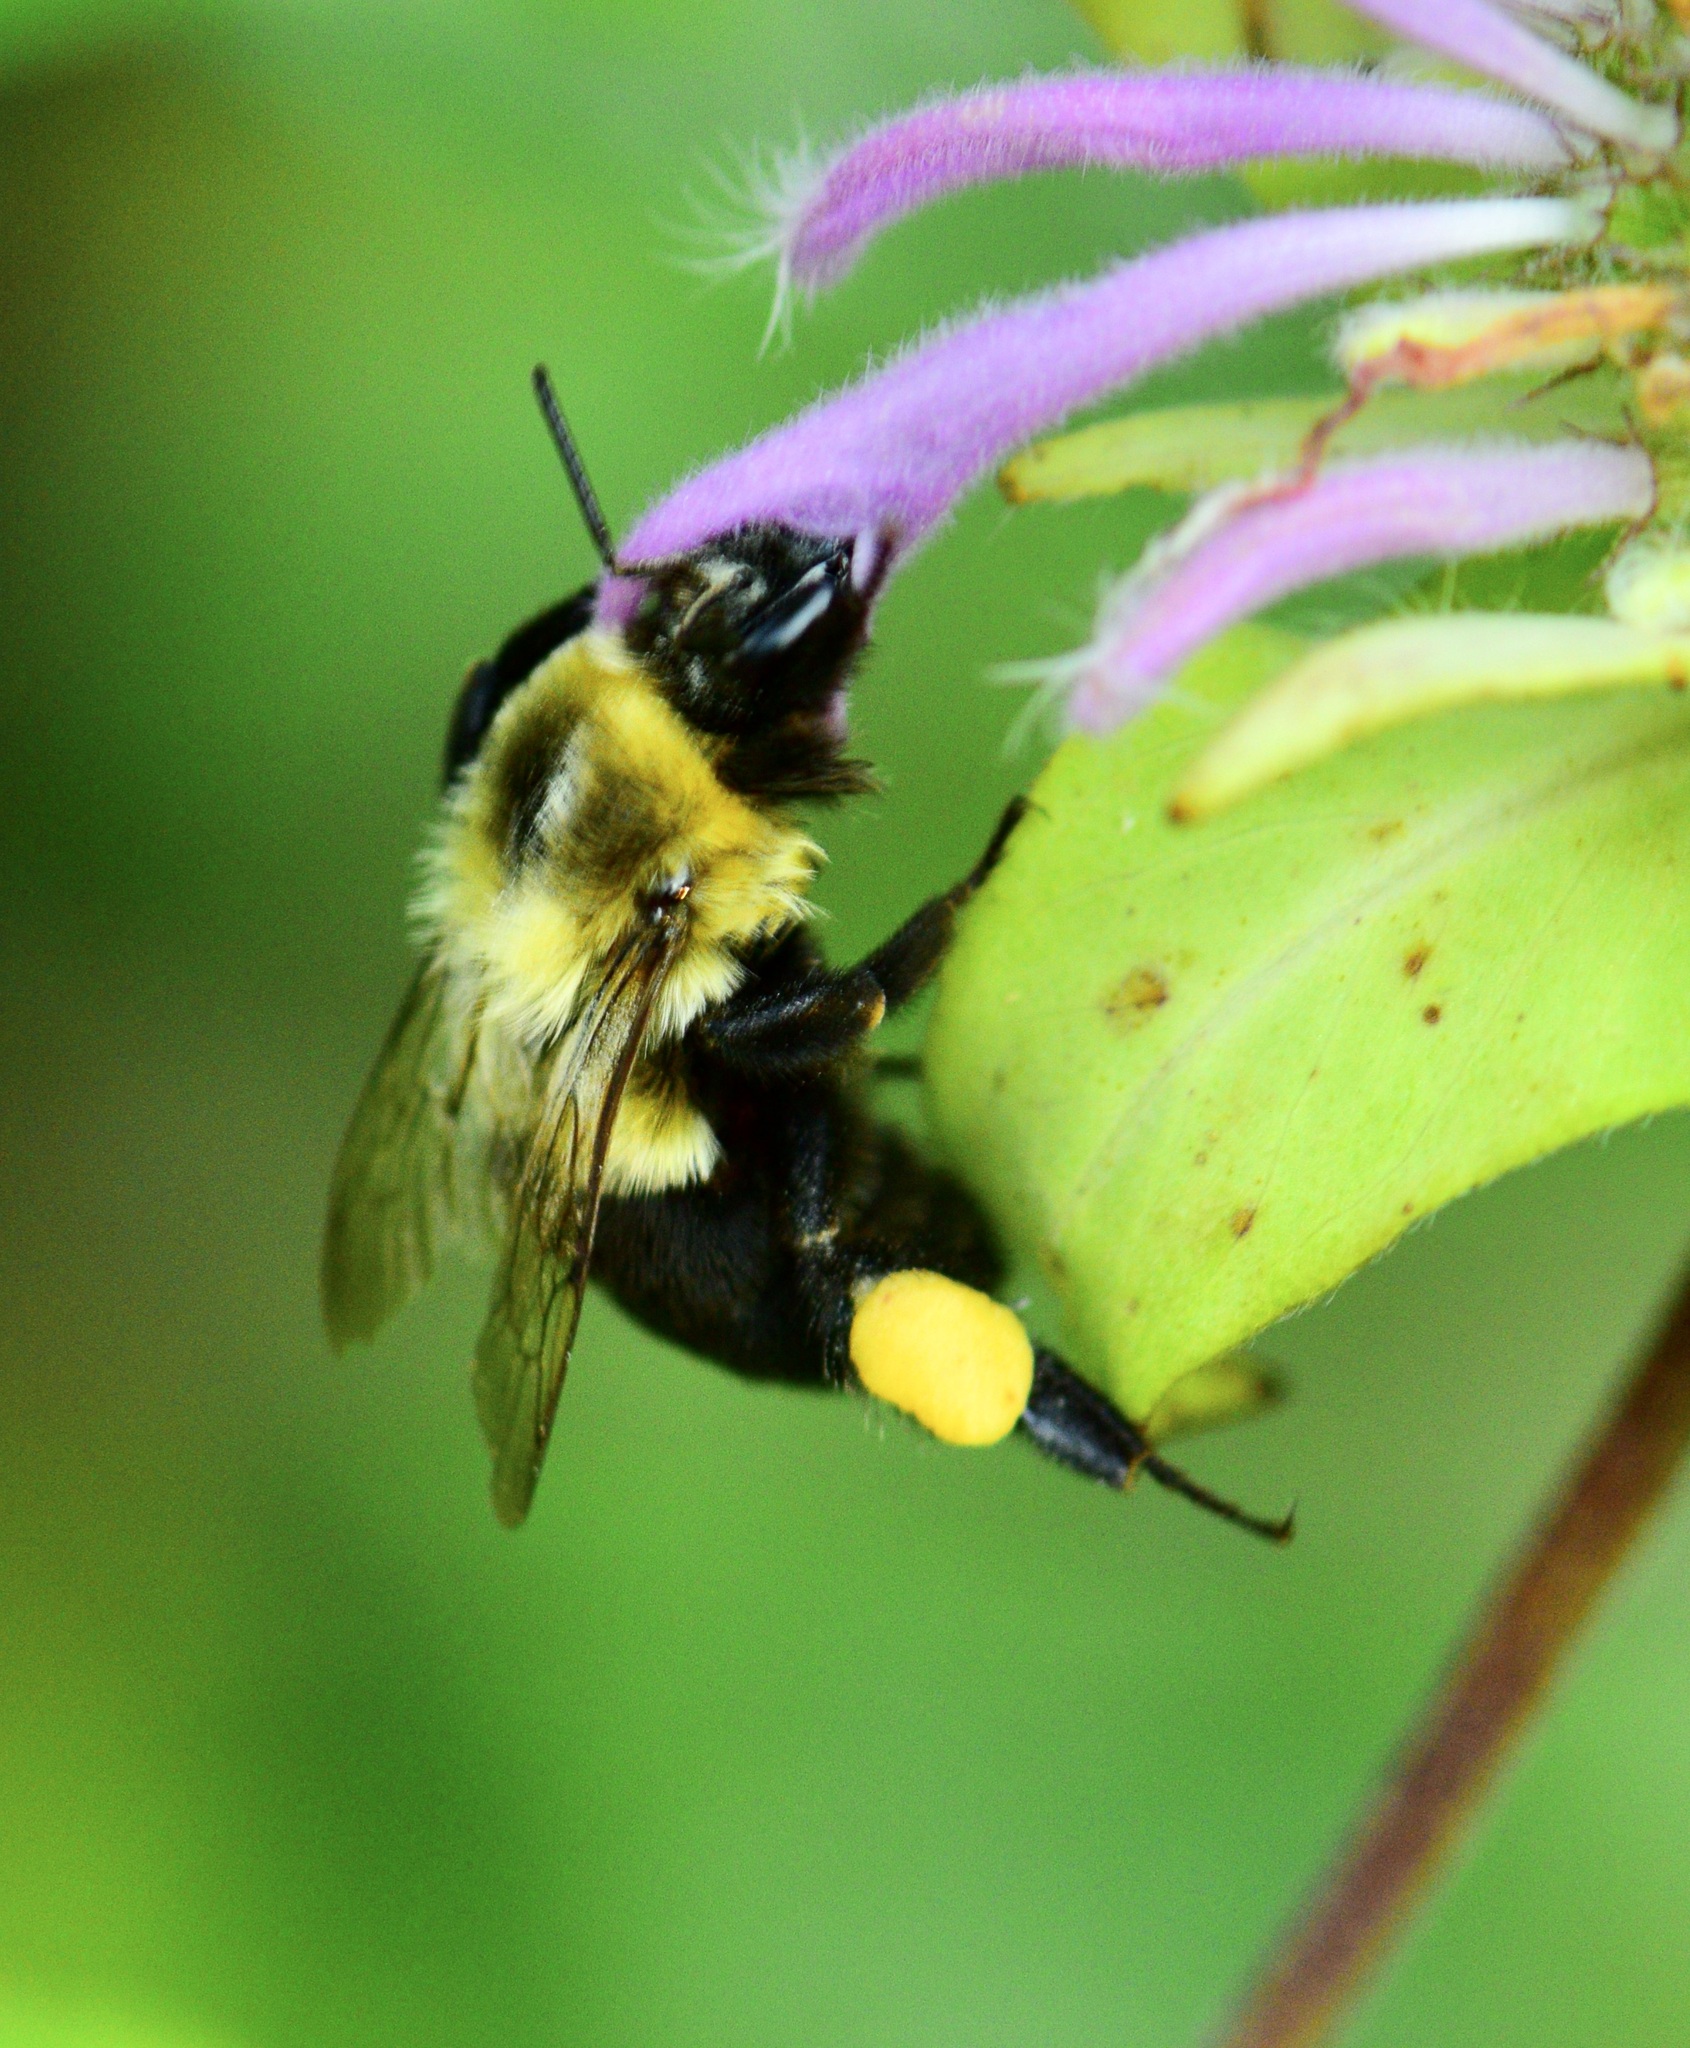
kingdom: Animalia
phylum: Arthropoda
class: Insecta
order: Hymenoptera
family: Apidae
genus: Bombus
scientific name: Bombus impatiens
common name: Common eastern bumble bee
